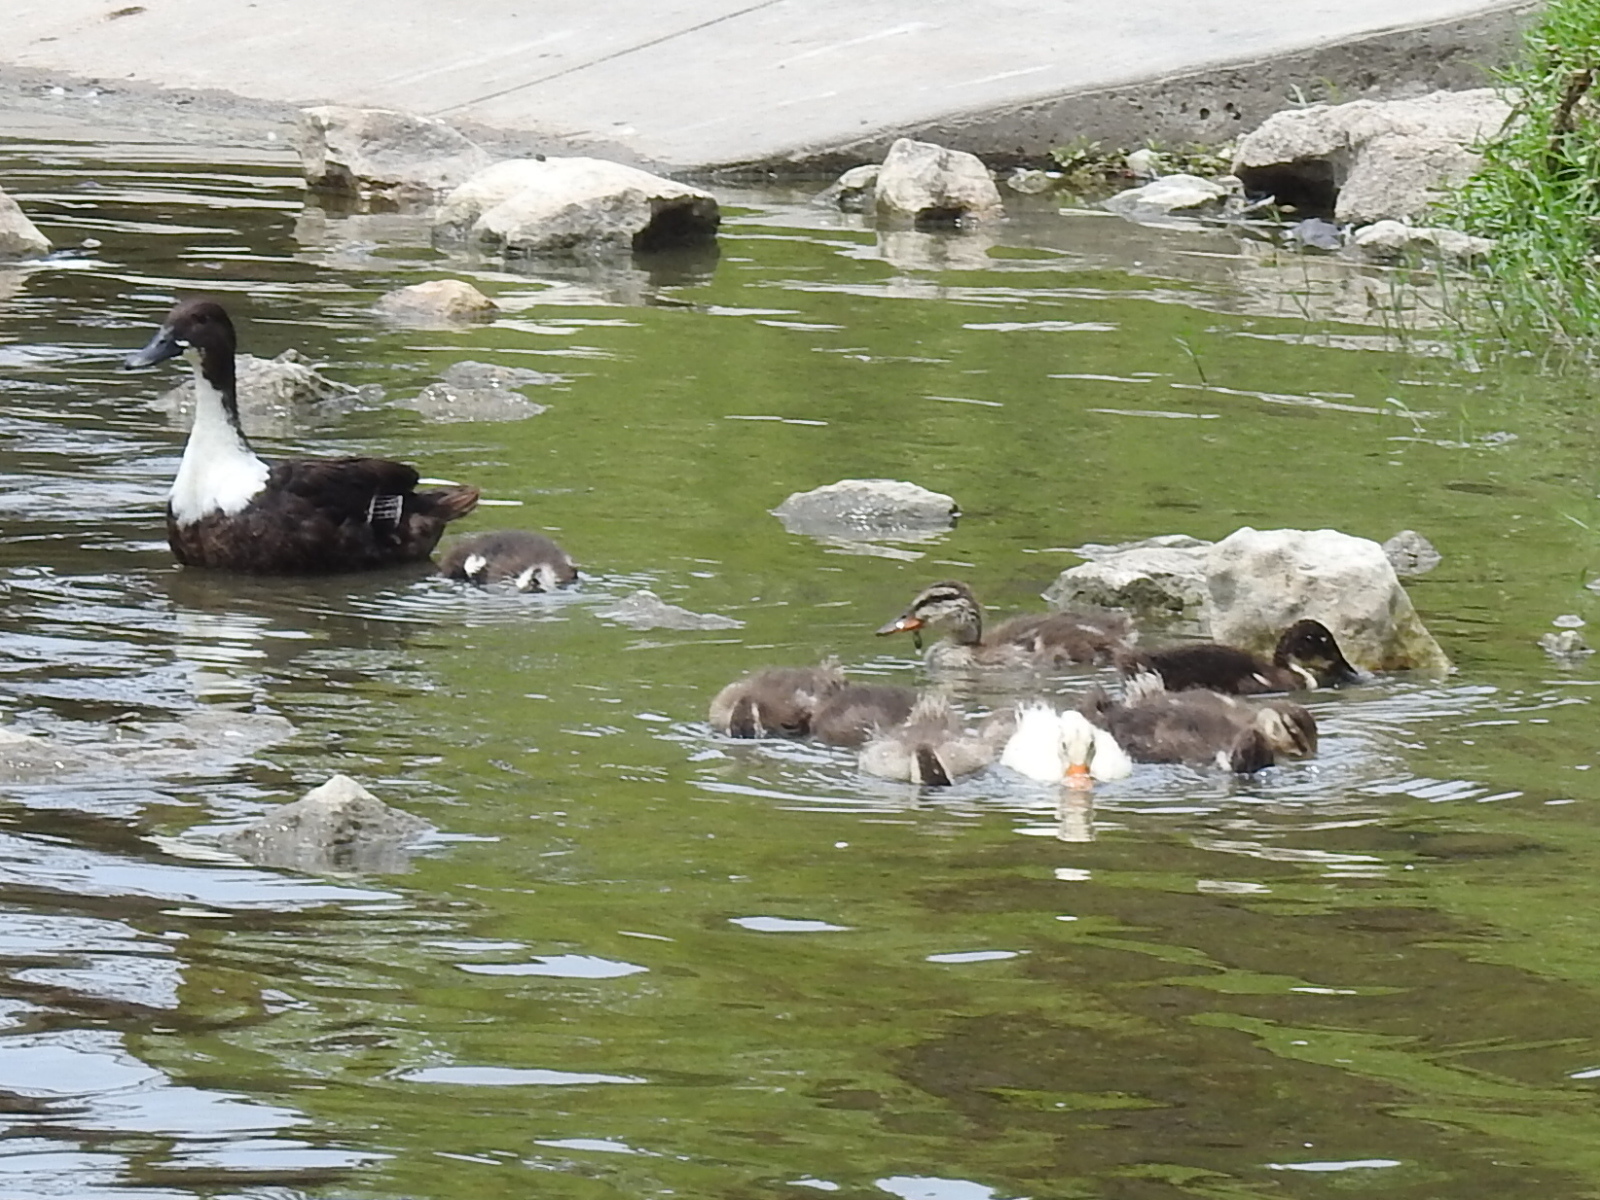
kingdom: Animalia
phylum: Chordata
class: Aves
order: Anseriformes
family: Anatidae
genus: Anas
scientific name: Anas platyrhynchos
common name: Mallard
